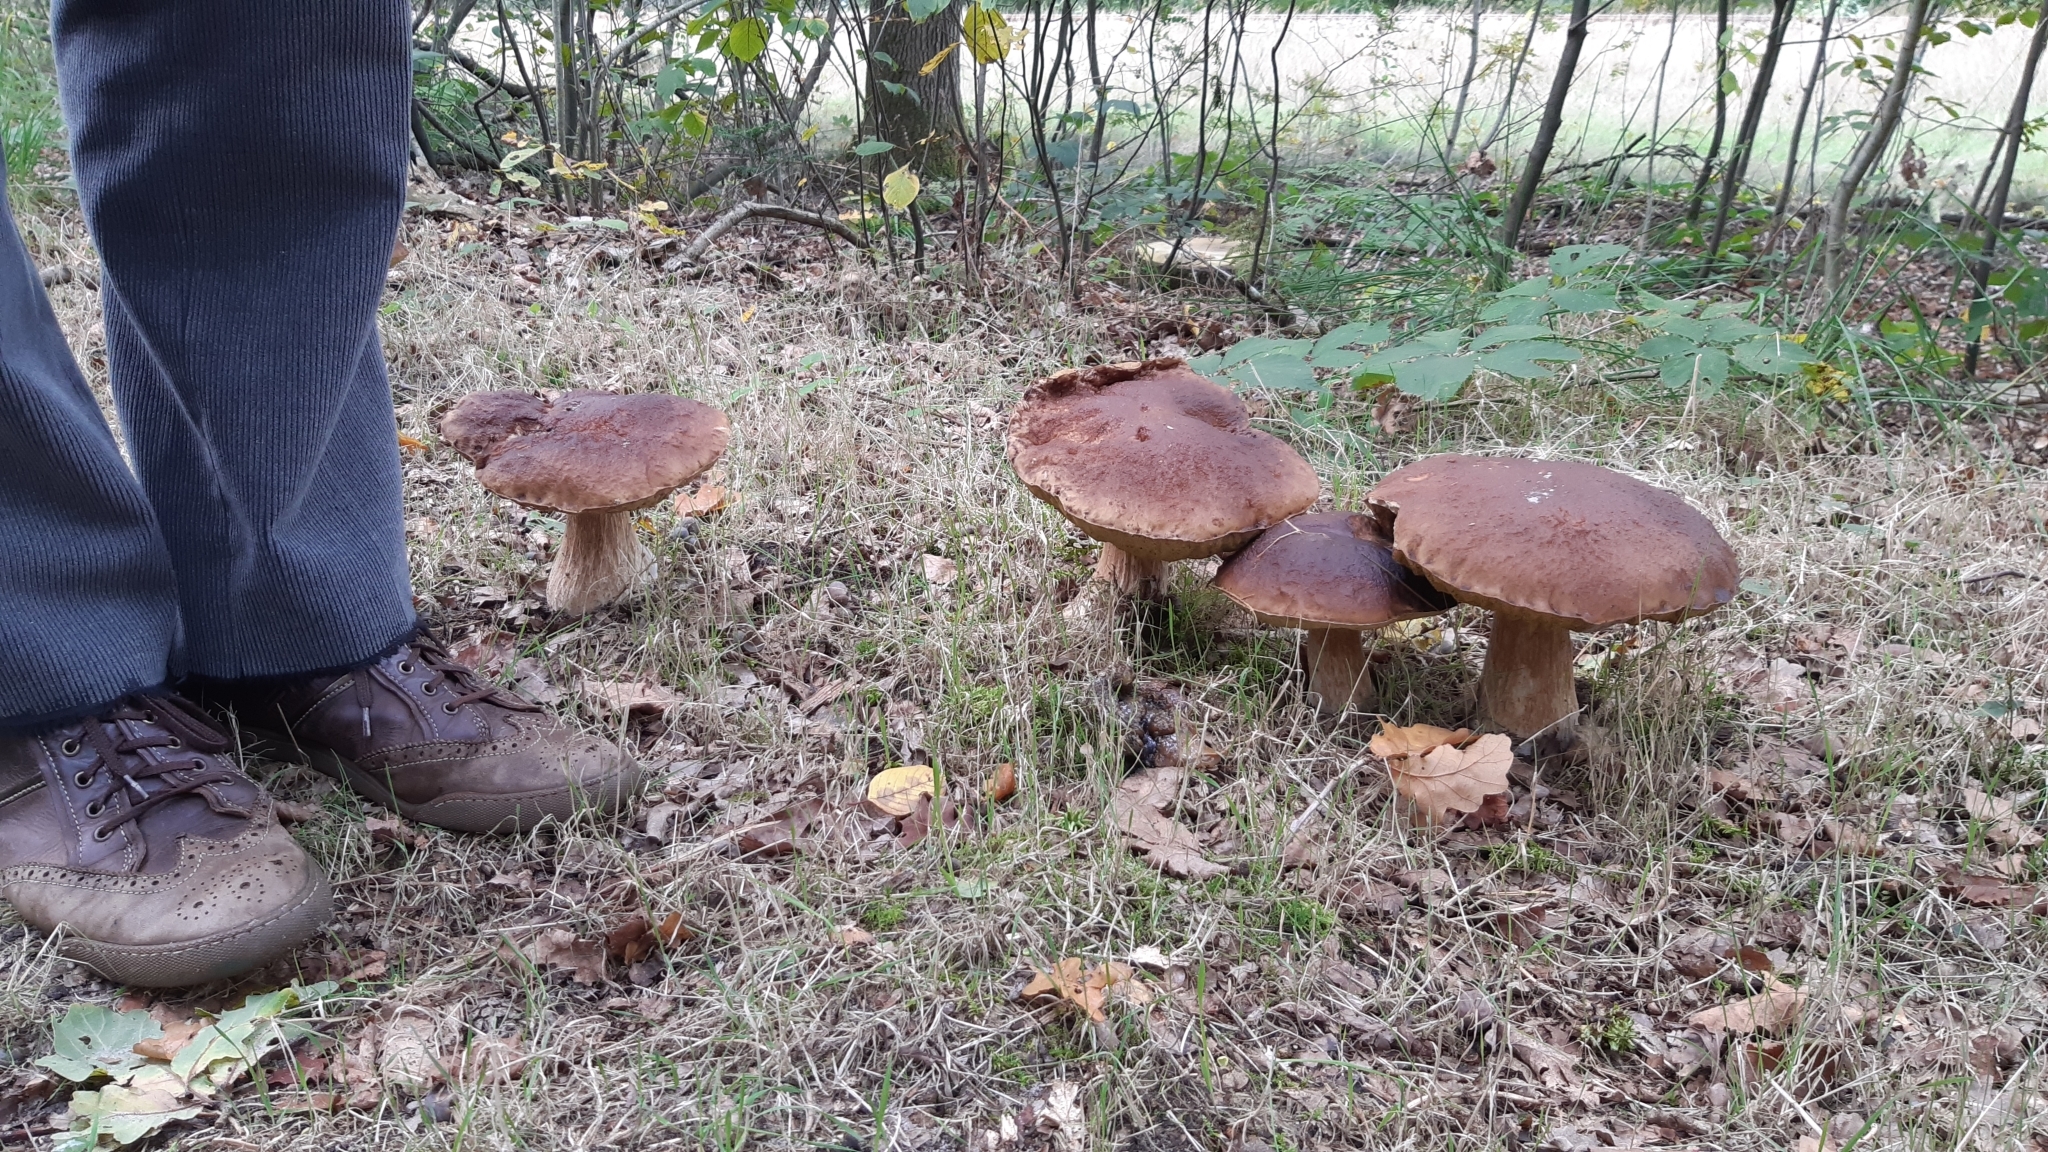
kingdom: Fungi
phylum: Basidiomycota
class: Agaricomycetes
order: Boletales
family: Boletaceae
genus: Boletus
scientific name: Boletus edulis
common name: Cep
